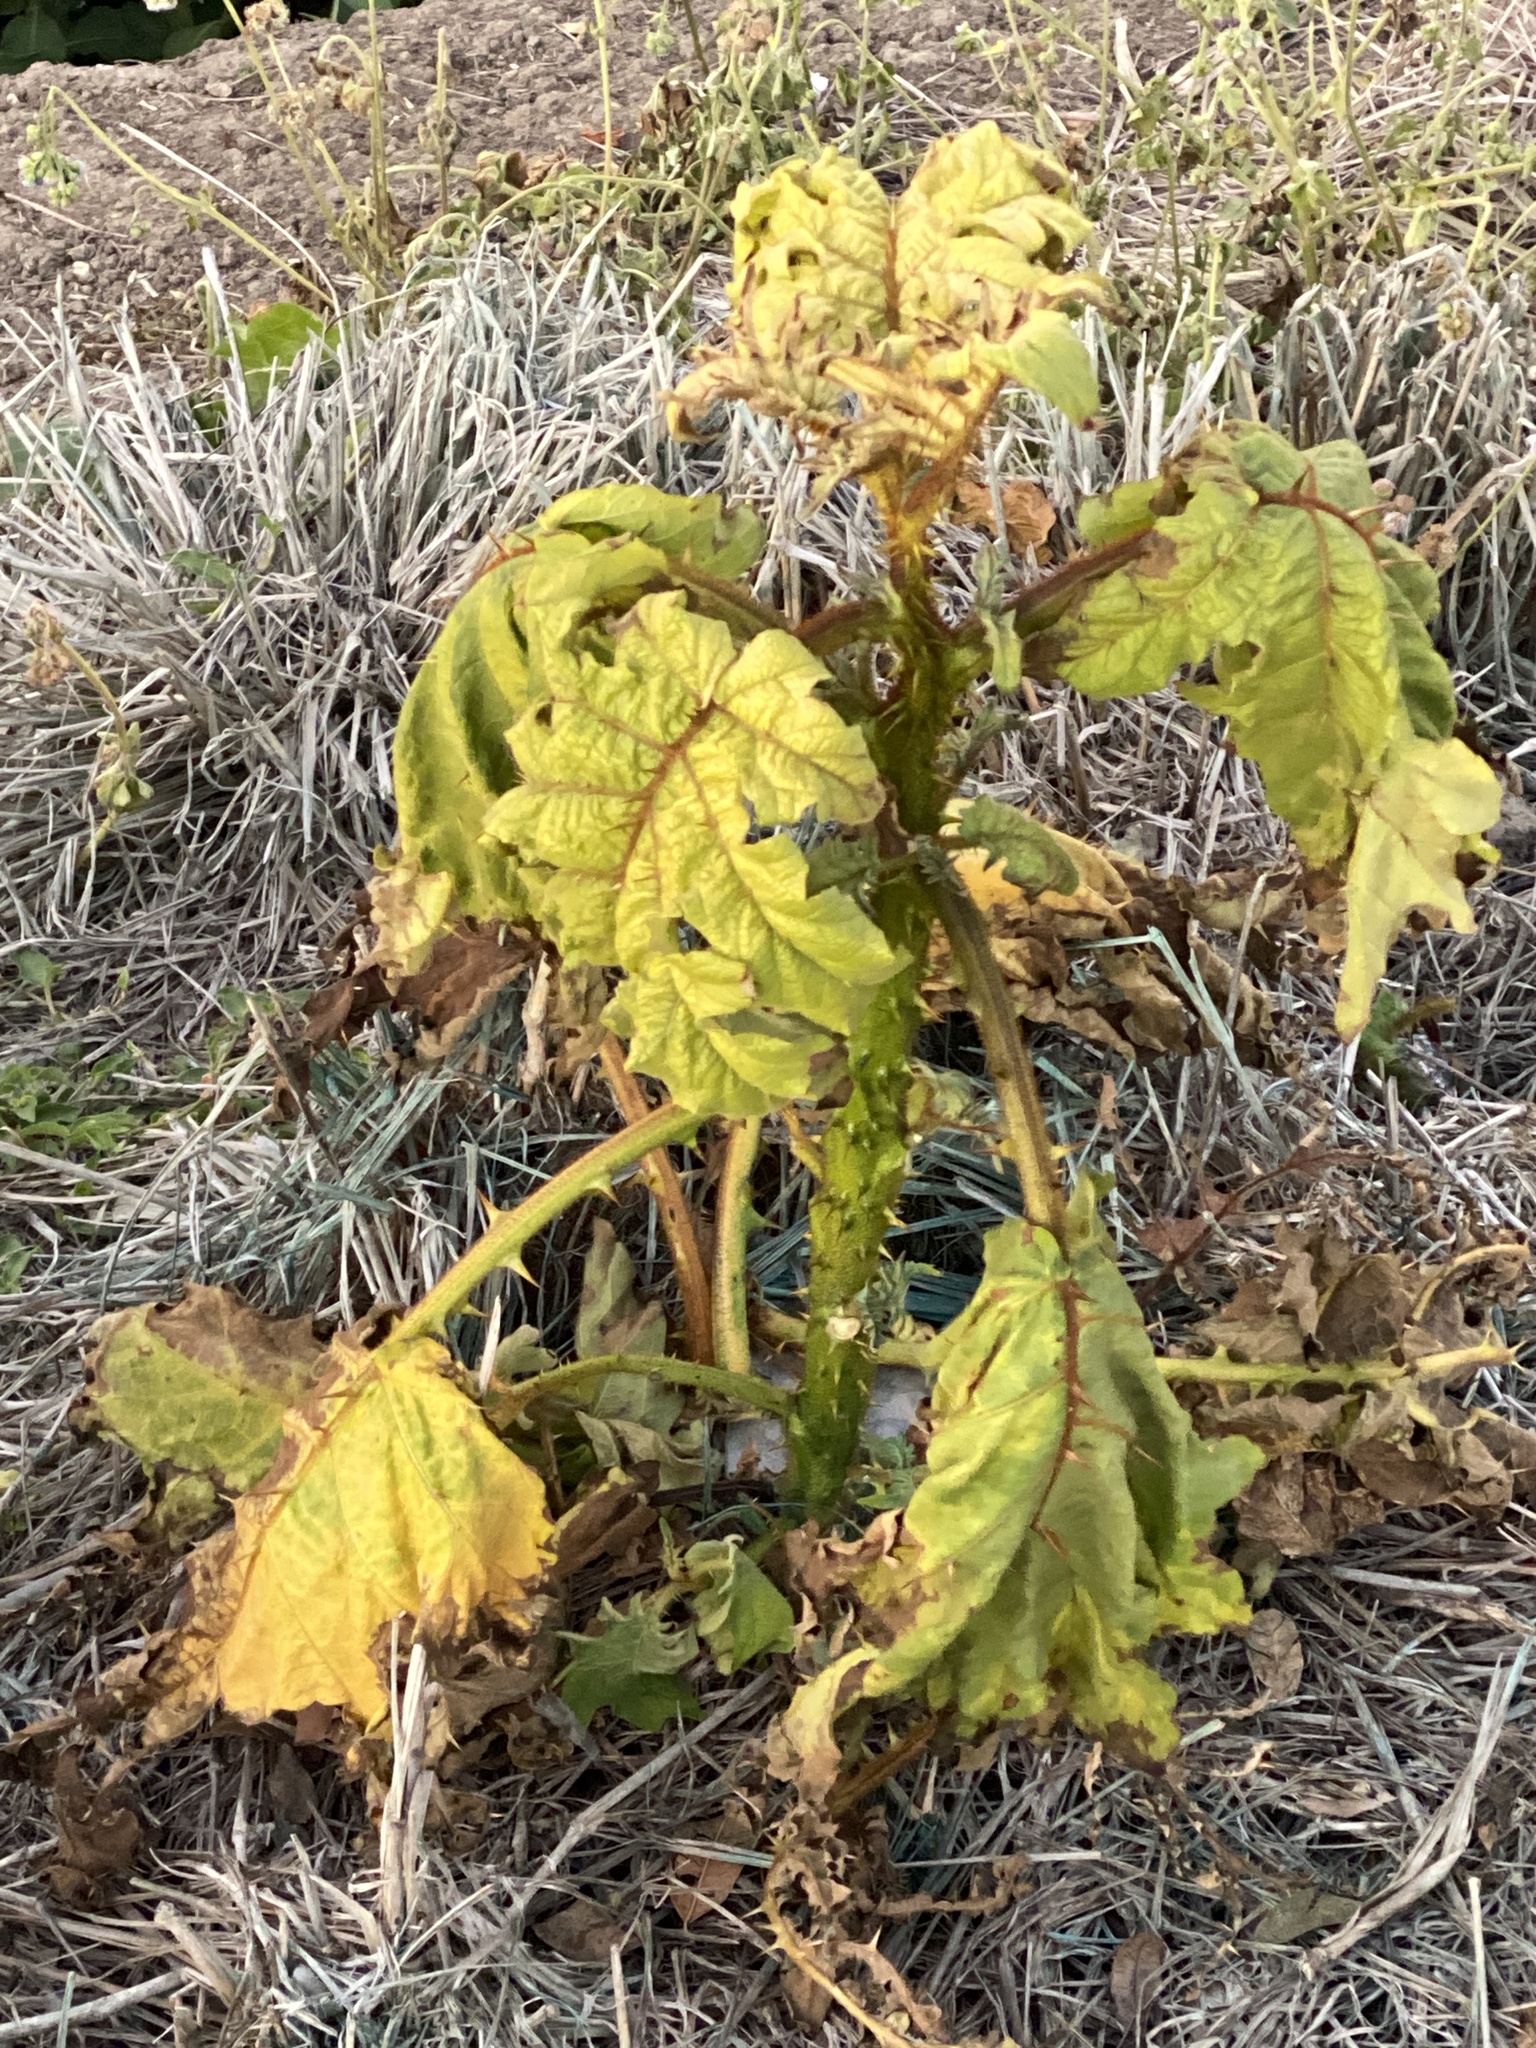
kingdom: Plantae
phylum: Tracheophyta
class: Magnoliopsida
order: Solanales
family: Solanaceae
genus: Solanum
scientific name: Solanum chrysotrichum
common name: Nightshade
